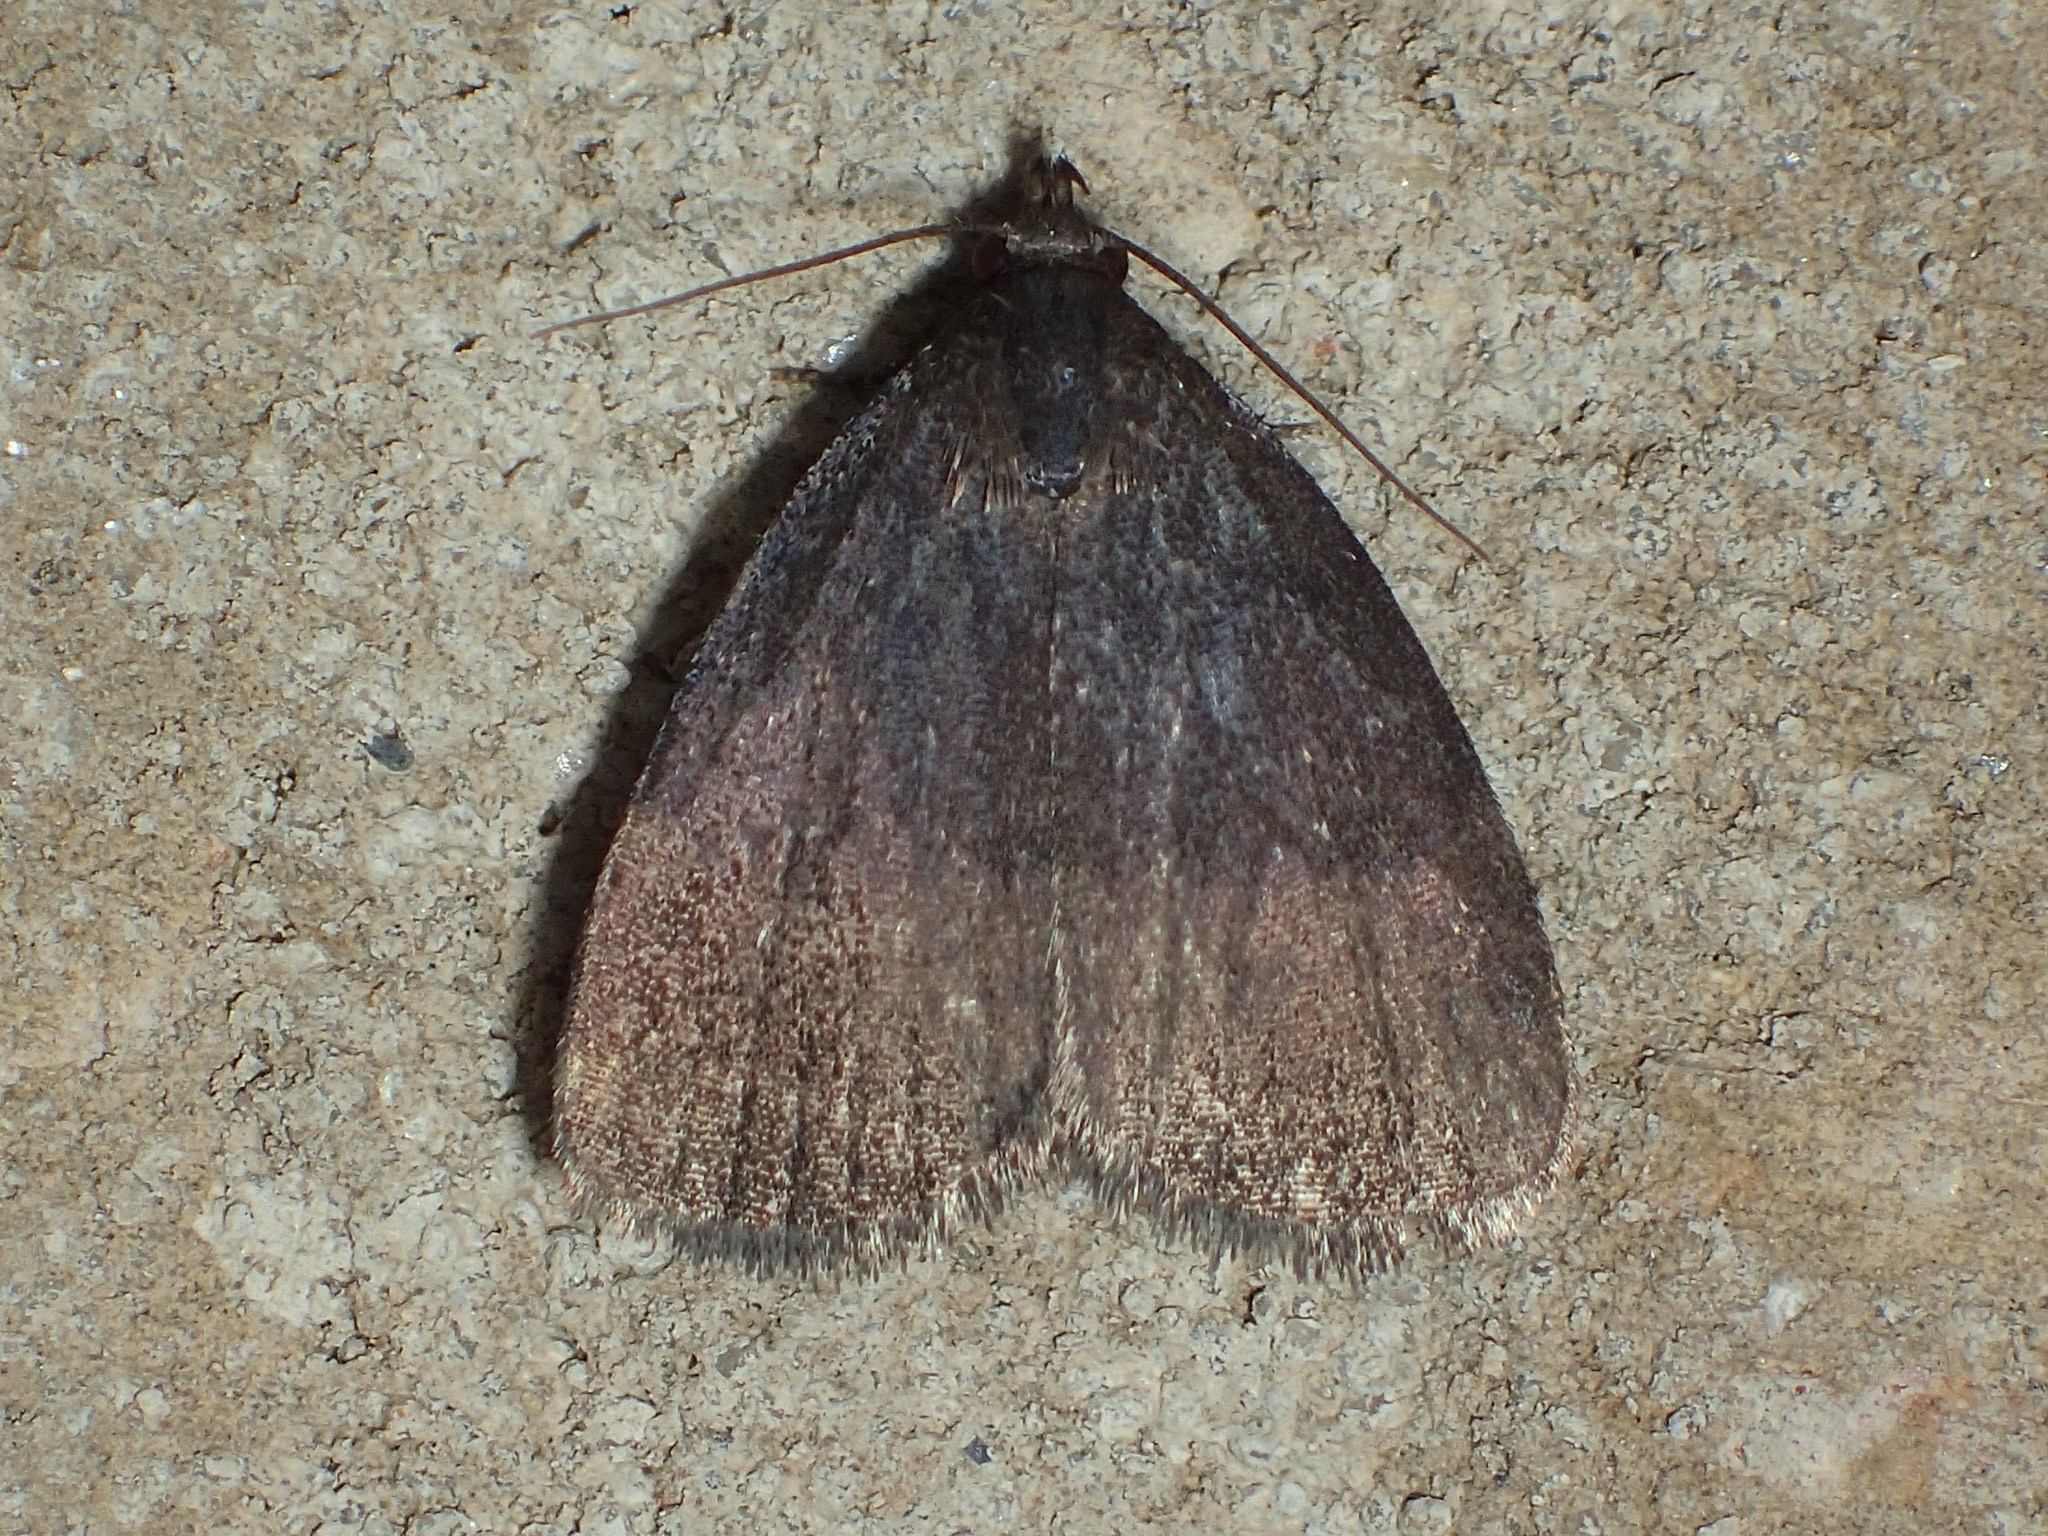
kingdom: Animalia
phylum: Arthropoda
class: Insecta
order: Lepidoptera
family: Erebidae
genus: Idia
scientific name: Idia rotundalis
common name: Rotund idia moth
